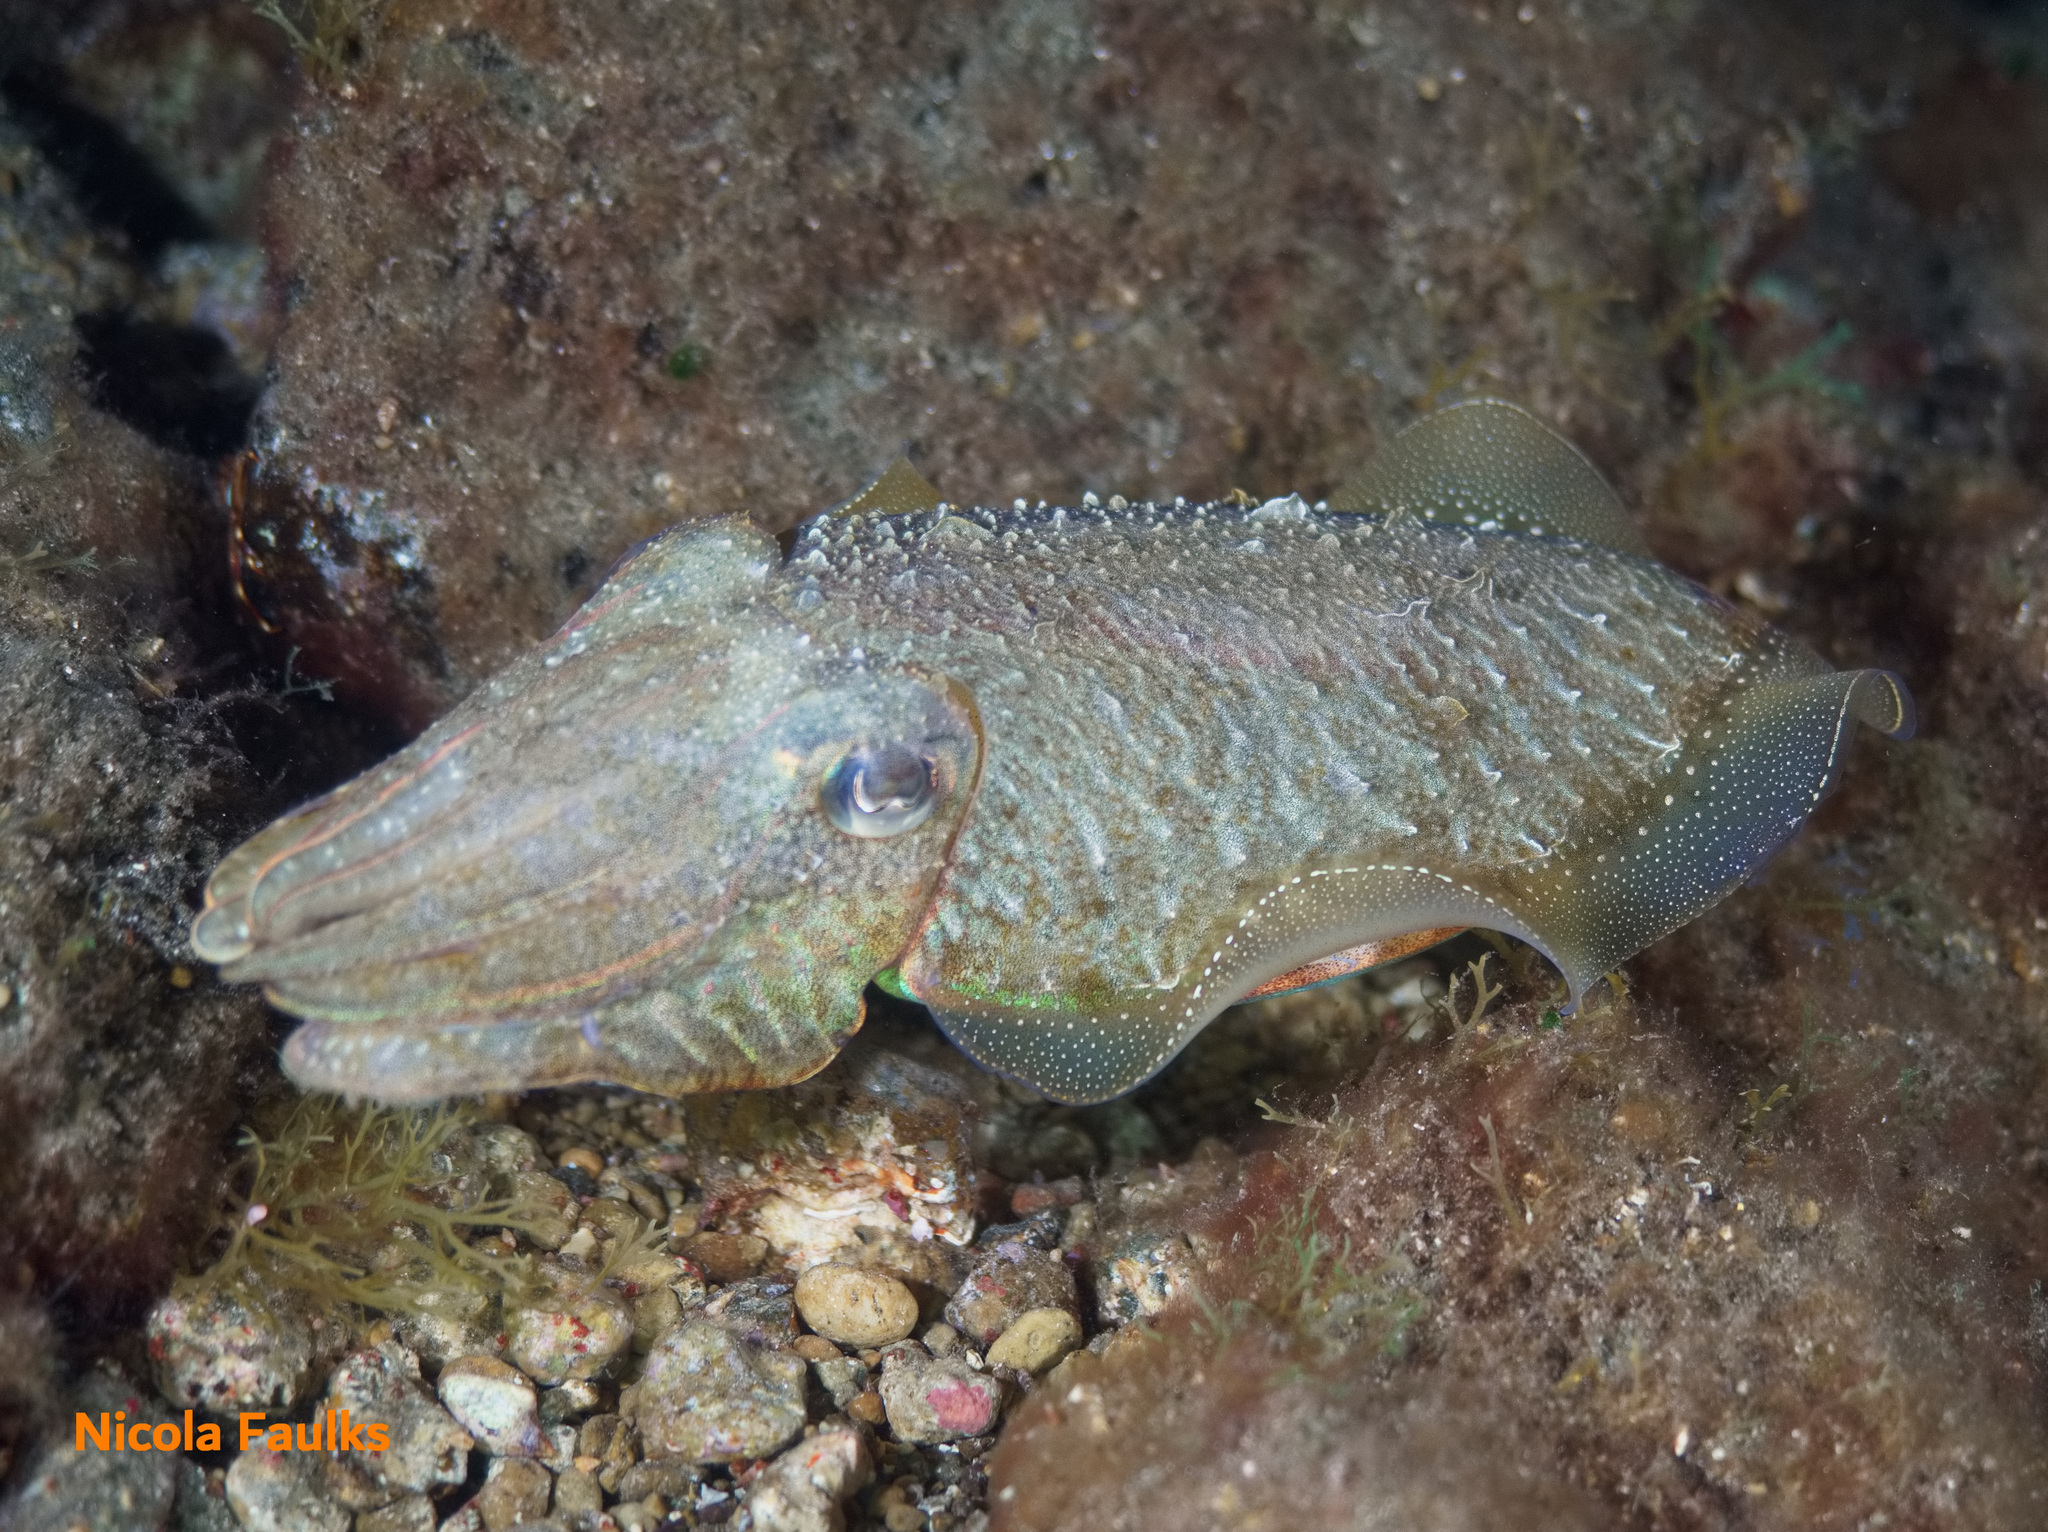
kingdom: Animalia
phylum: Mollusca
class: Cephalopoda
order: Sepiida
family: Sepiidae
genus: Sepia
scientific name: Sepia officinalis
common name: Common cuttlefish
